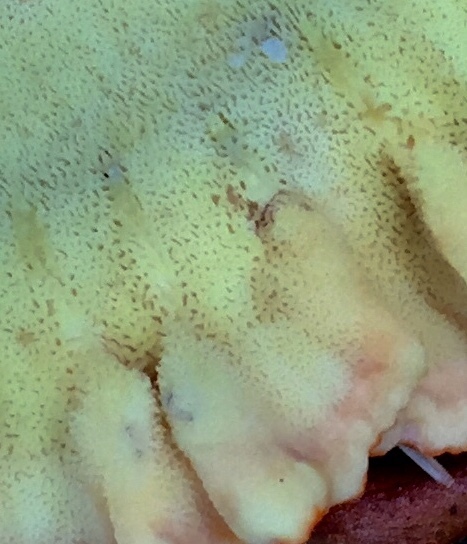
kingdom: Fungi
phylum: Basidiomycota
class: Agaricomycetes
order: Polyporales
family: Laetiporaceae
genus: Laetiporus
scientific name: Laetiporus sulphureus
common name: Chicken of the woods
